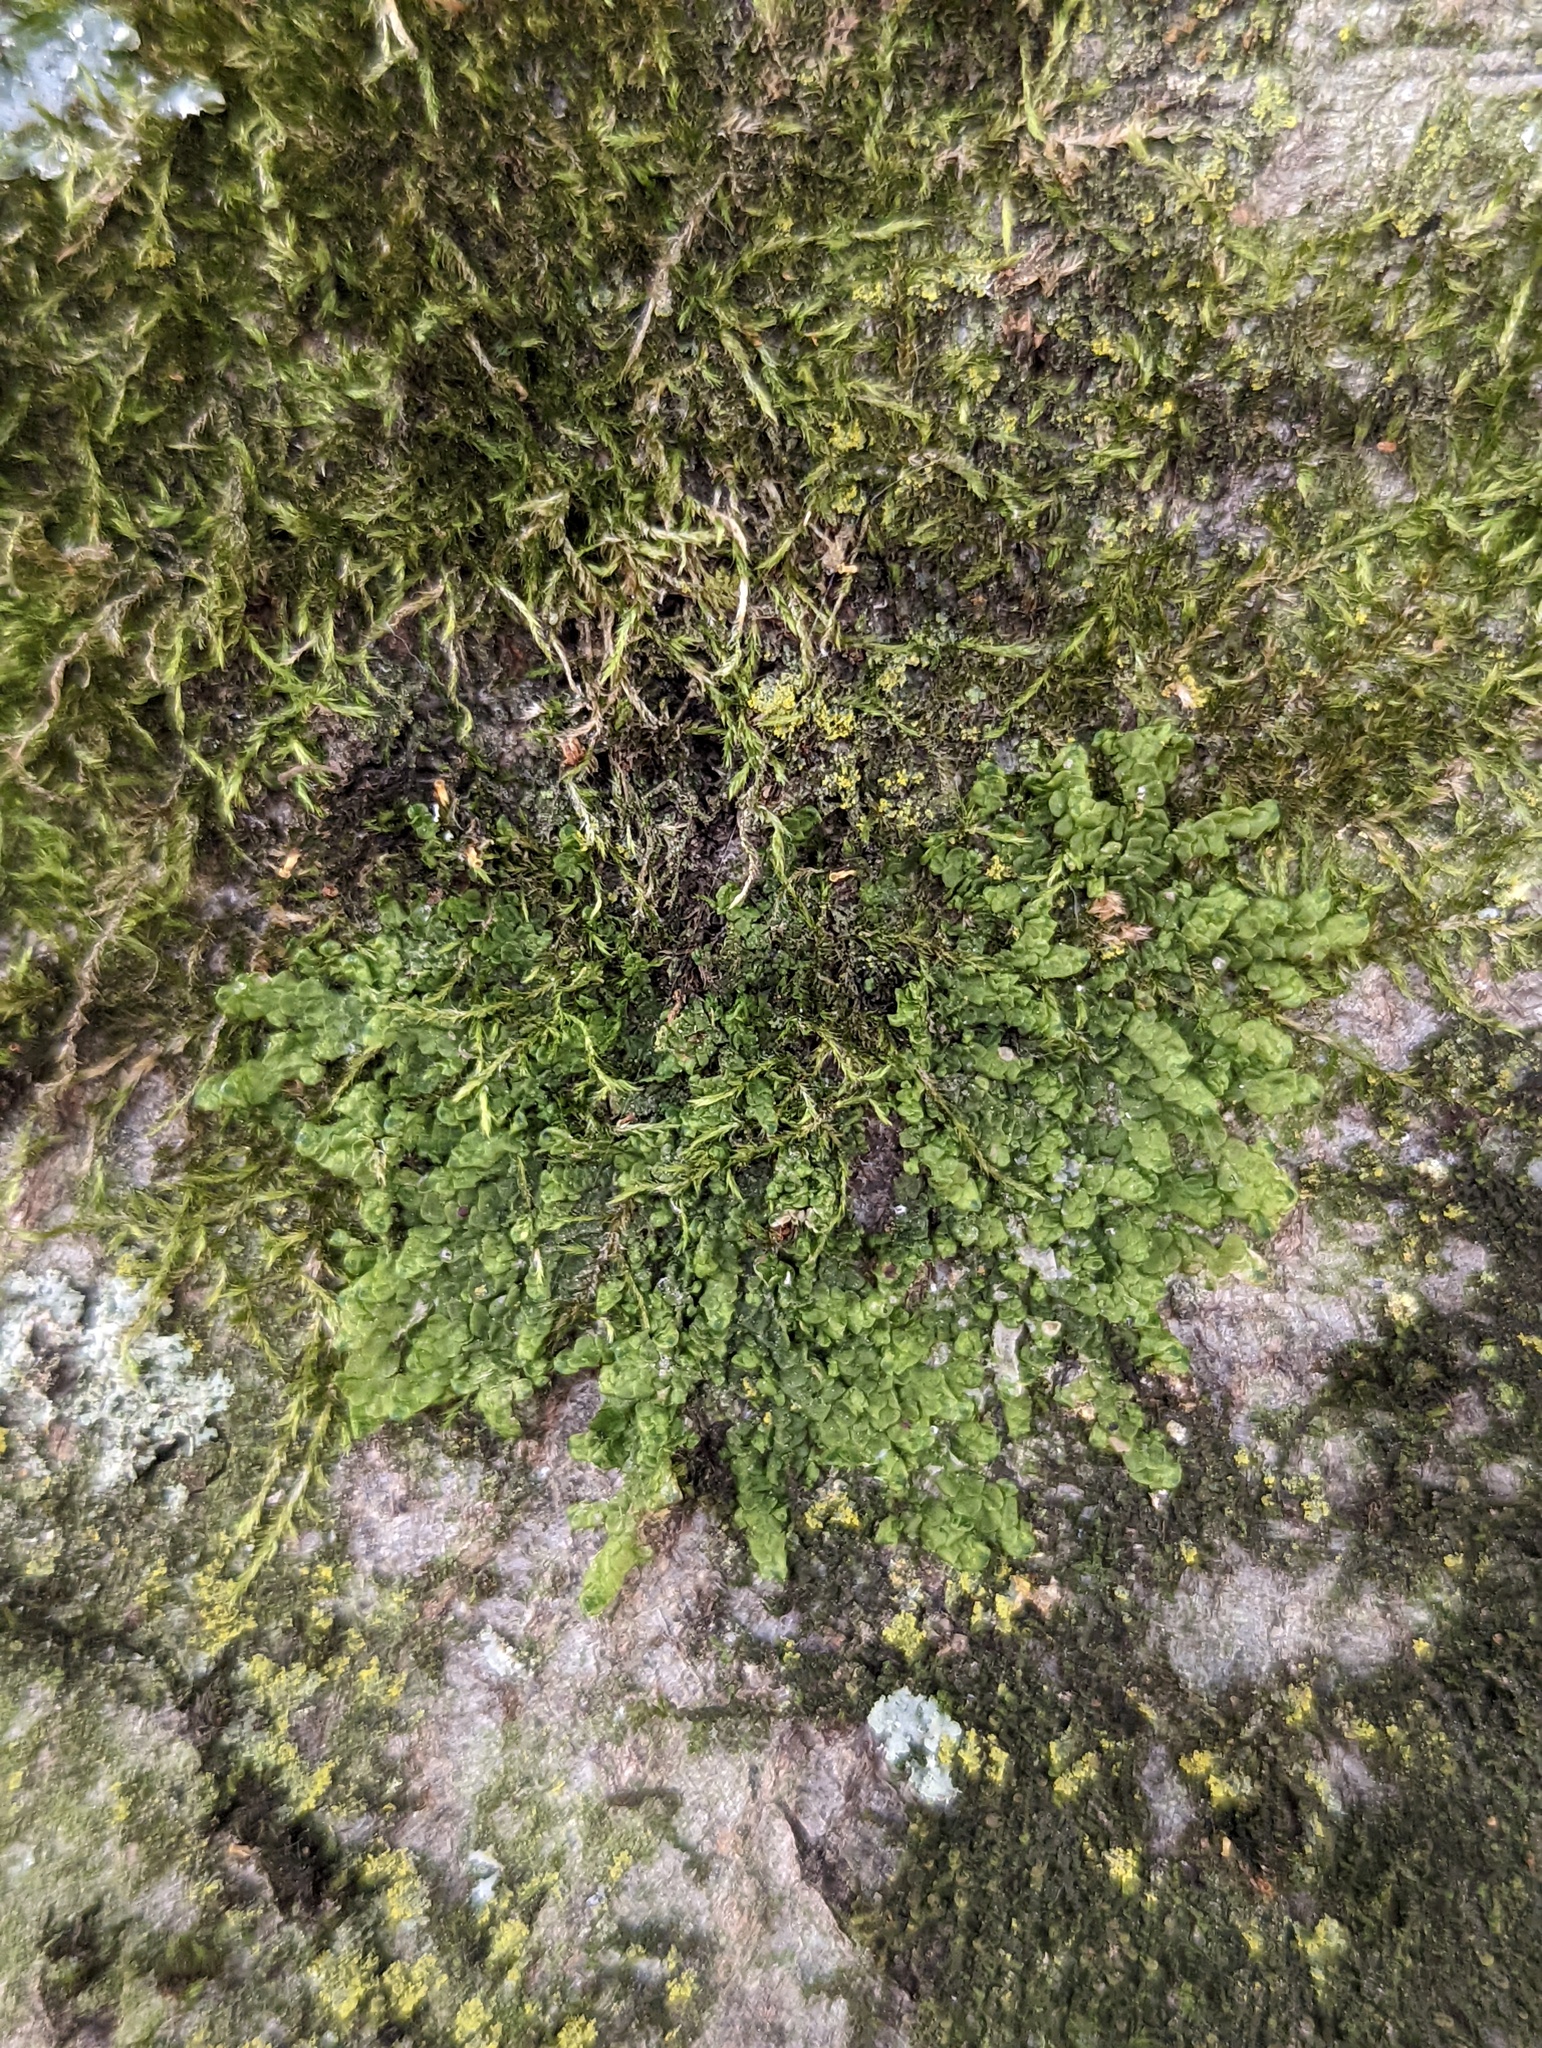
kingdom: Plantae
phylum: Marchantiophyta
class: Jungermanniopsida
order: Porellales
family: Radulaceae
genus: Radula
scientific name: Radula complanata
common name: Flat-leaved scalewort
